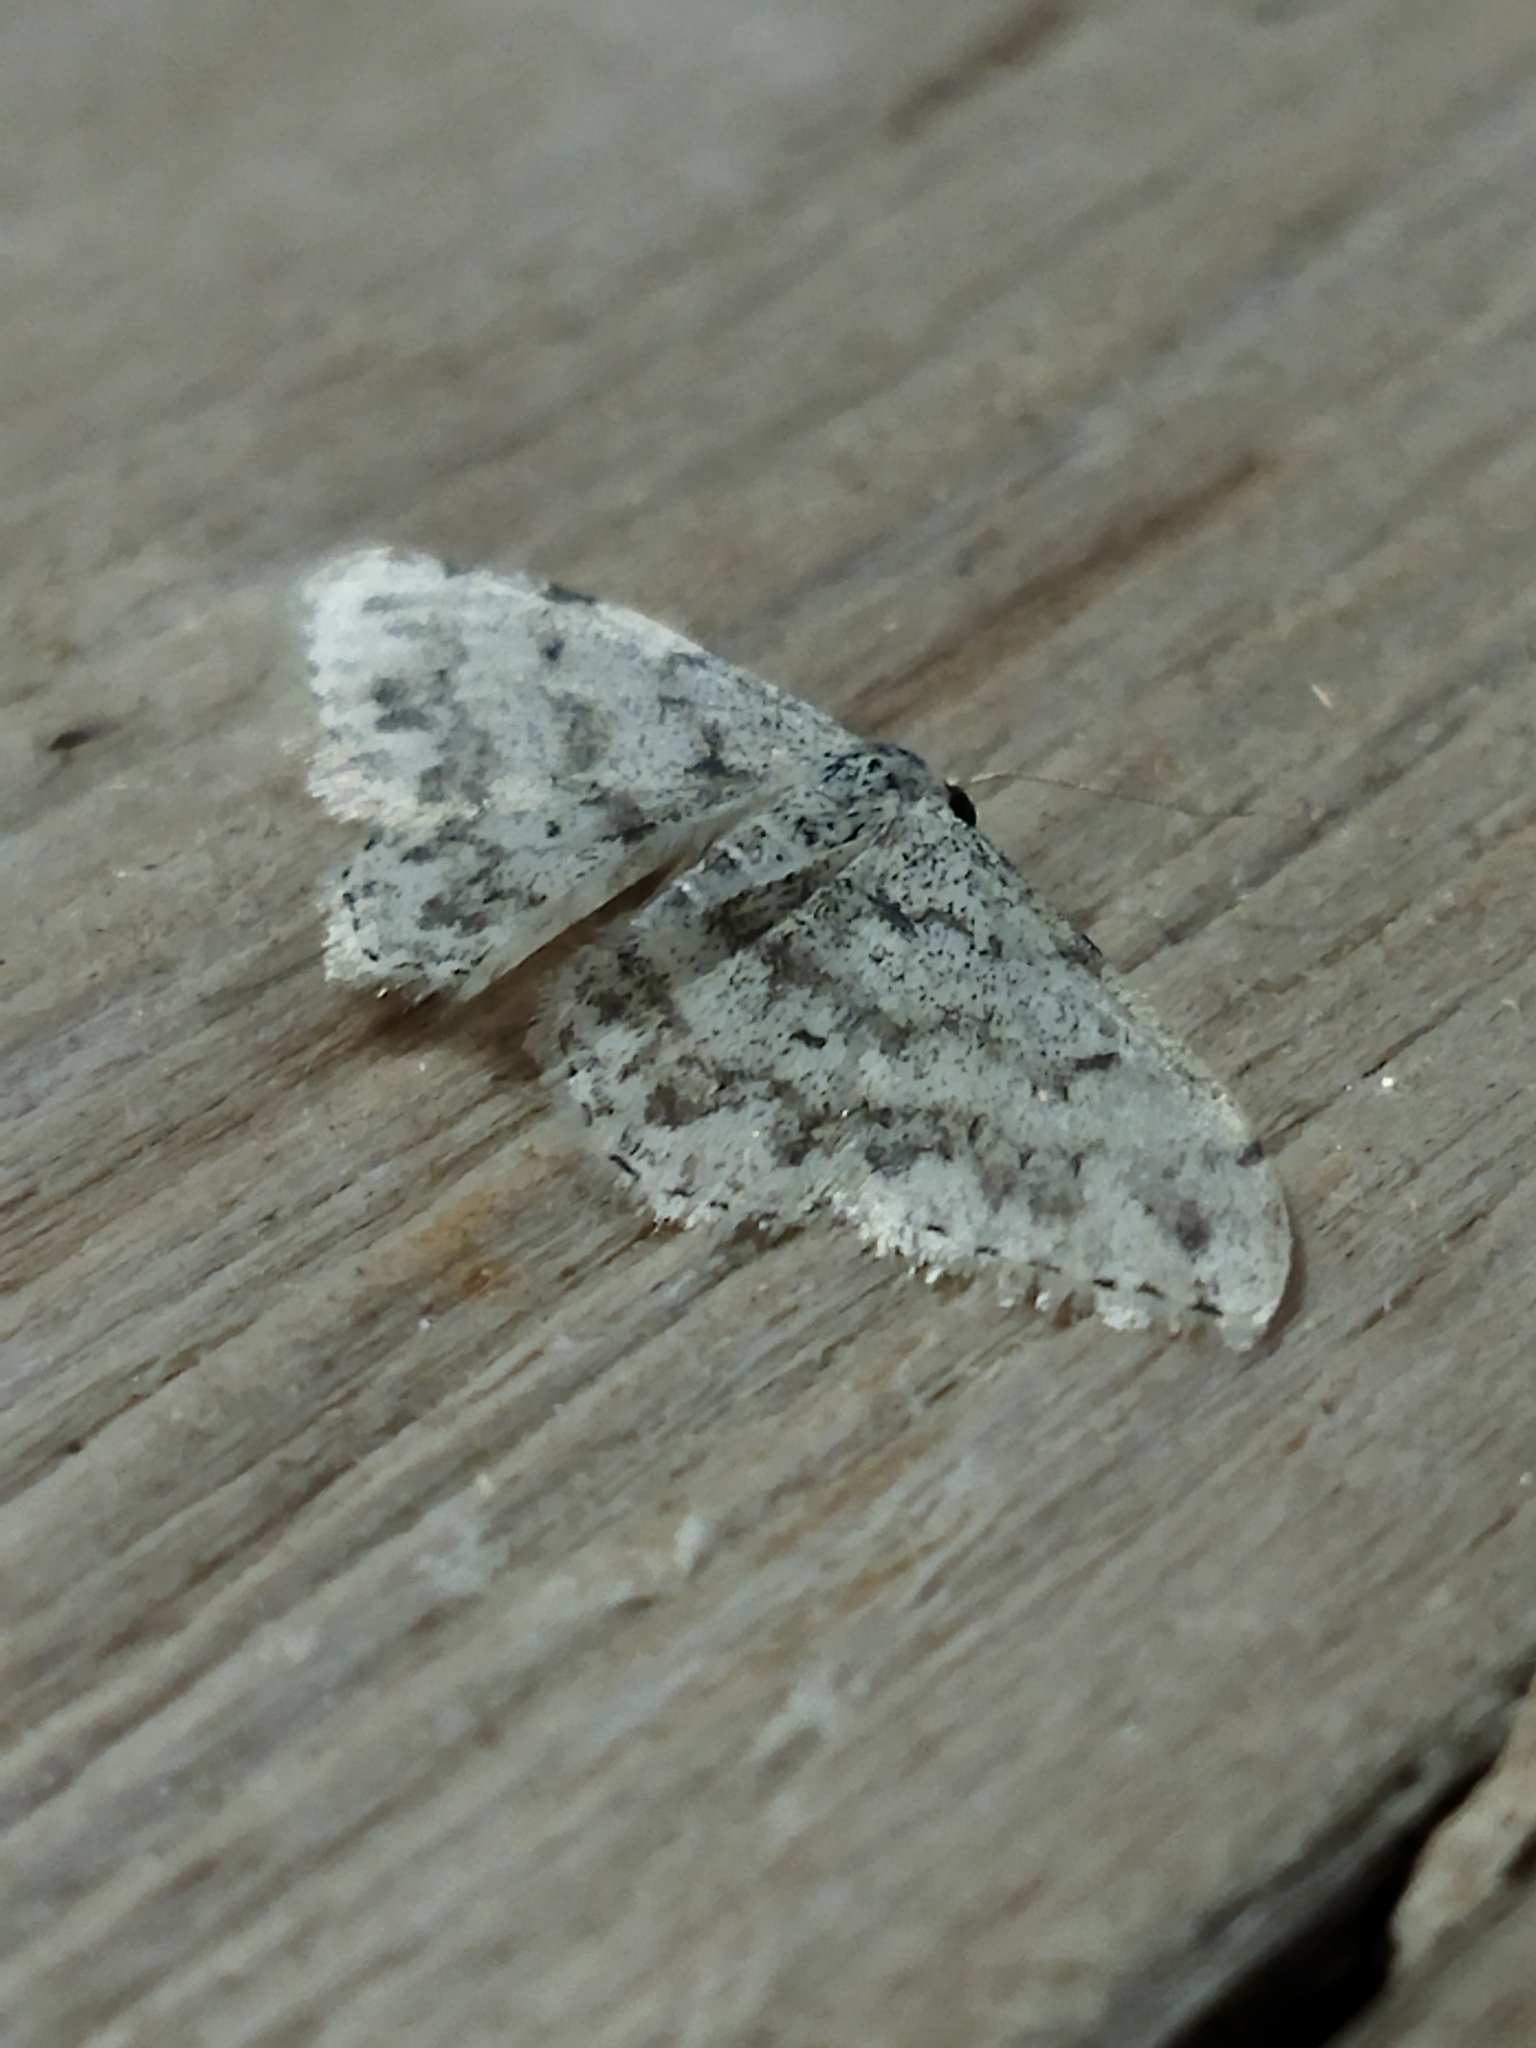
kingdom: Animalia
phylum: Arthropoda
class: Insecta
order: Lepidoptera
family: Geometridae
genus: Idaea
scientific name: Idaea camparia
